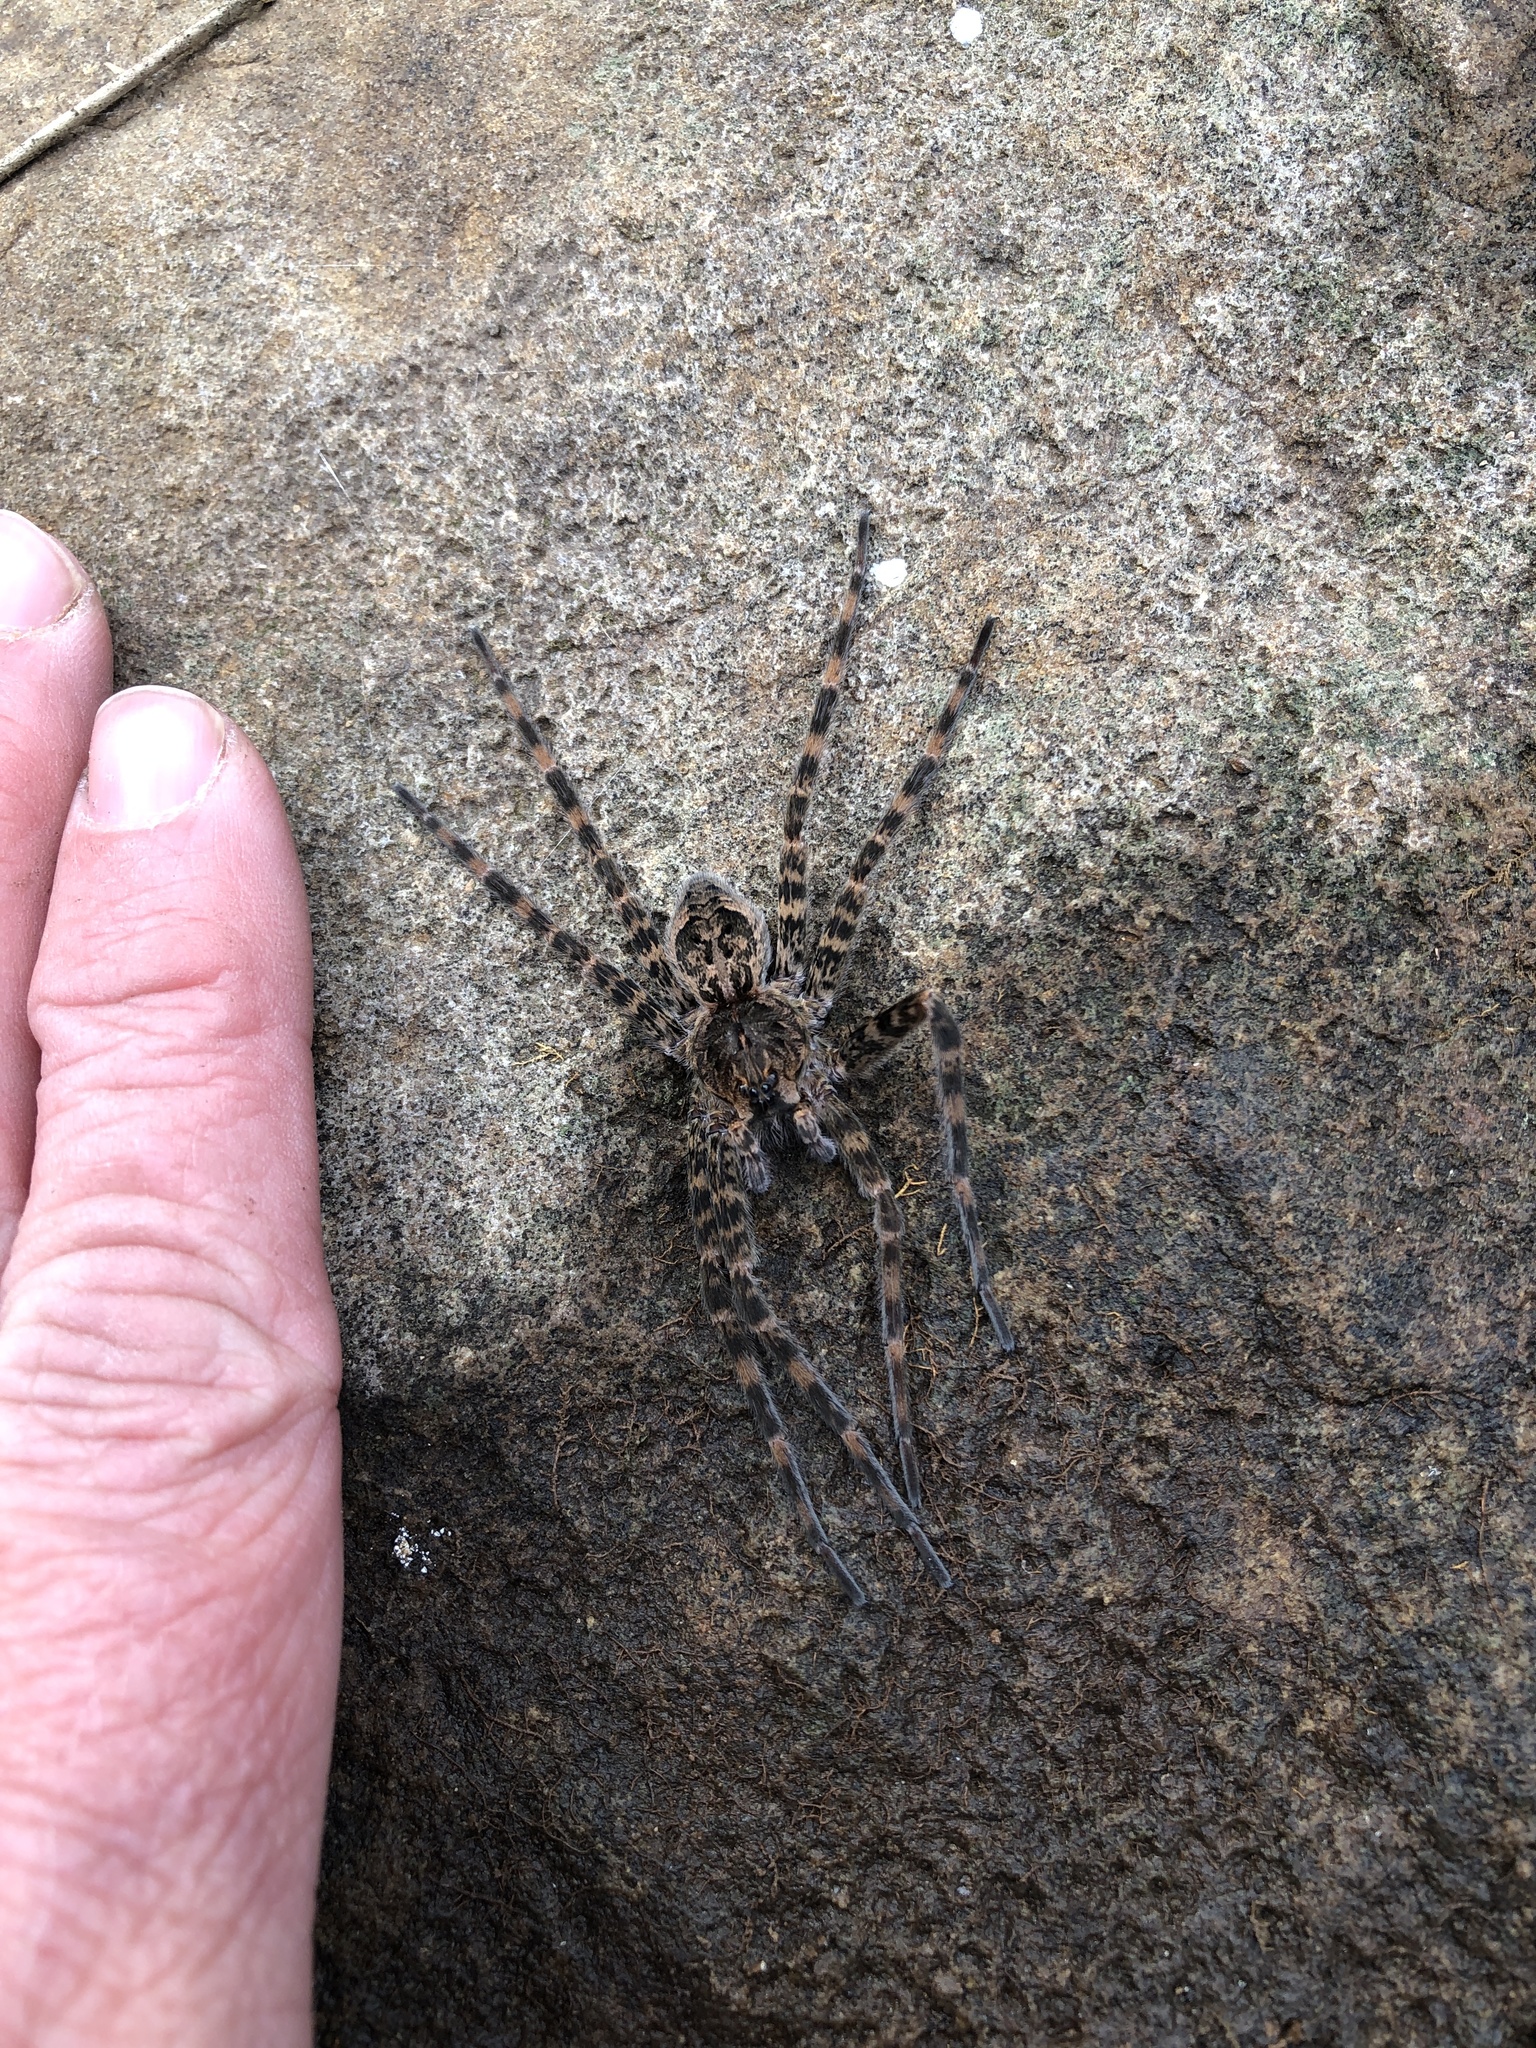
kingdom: Animalia
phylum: Arthropoda
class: Arachnida
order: Araneae
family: Pisauridae
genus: Dolomedes
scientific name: Dolomedes tenebrosus
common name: Dark fishing spider
